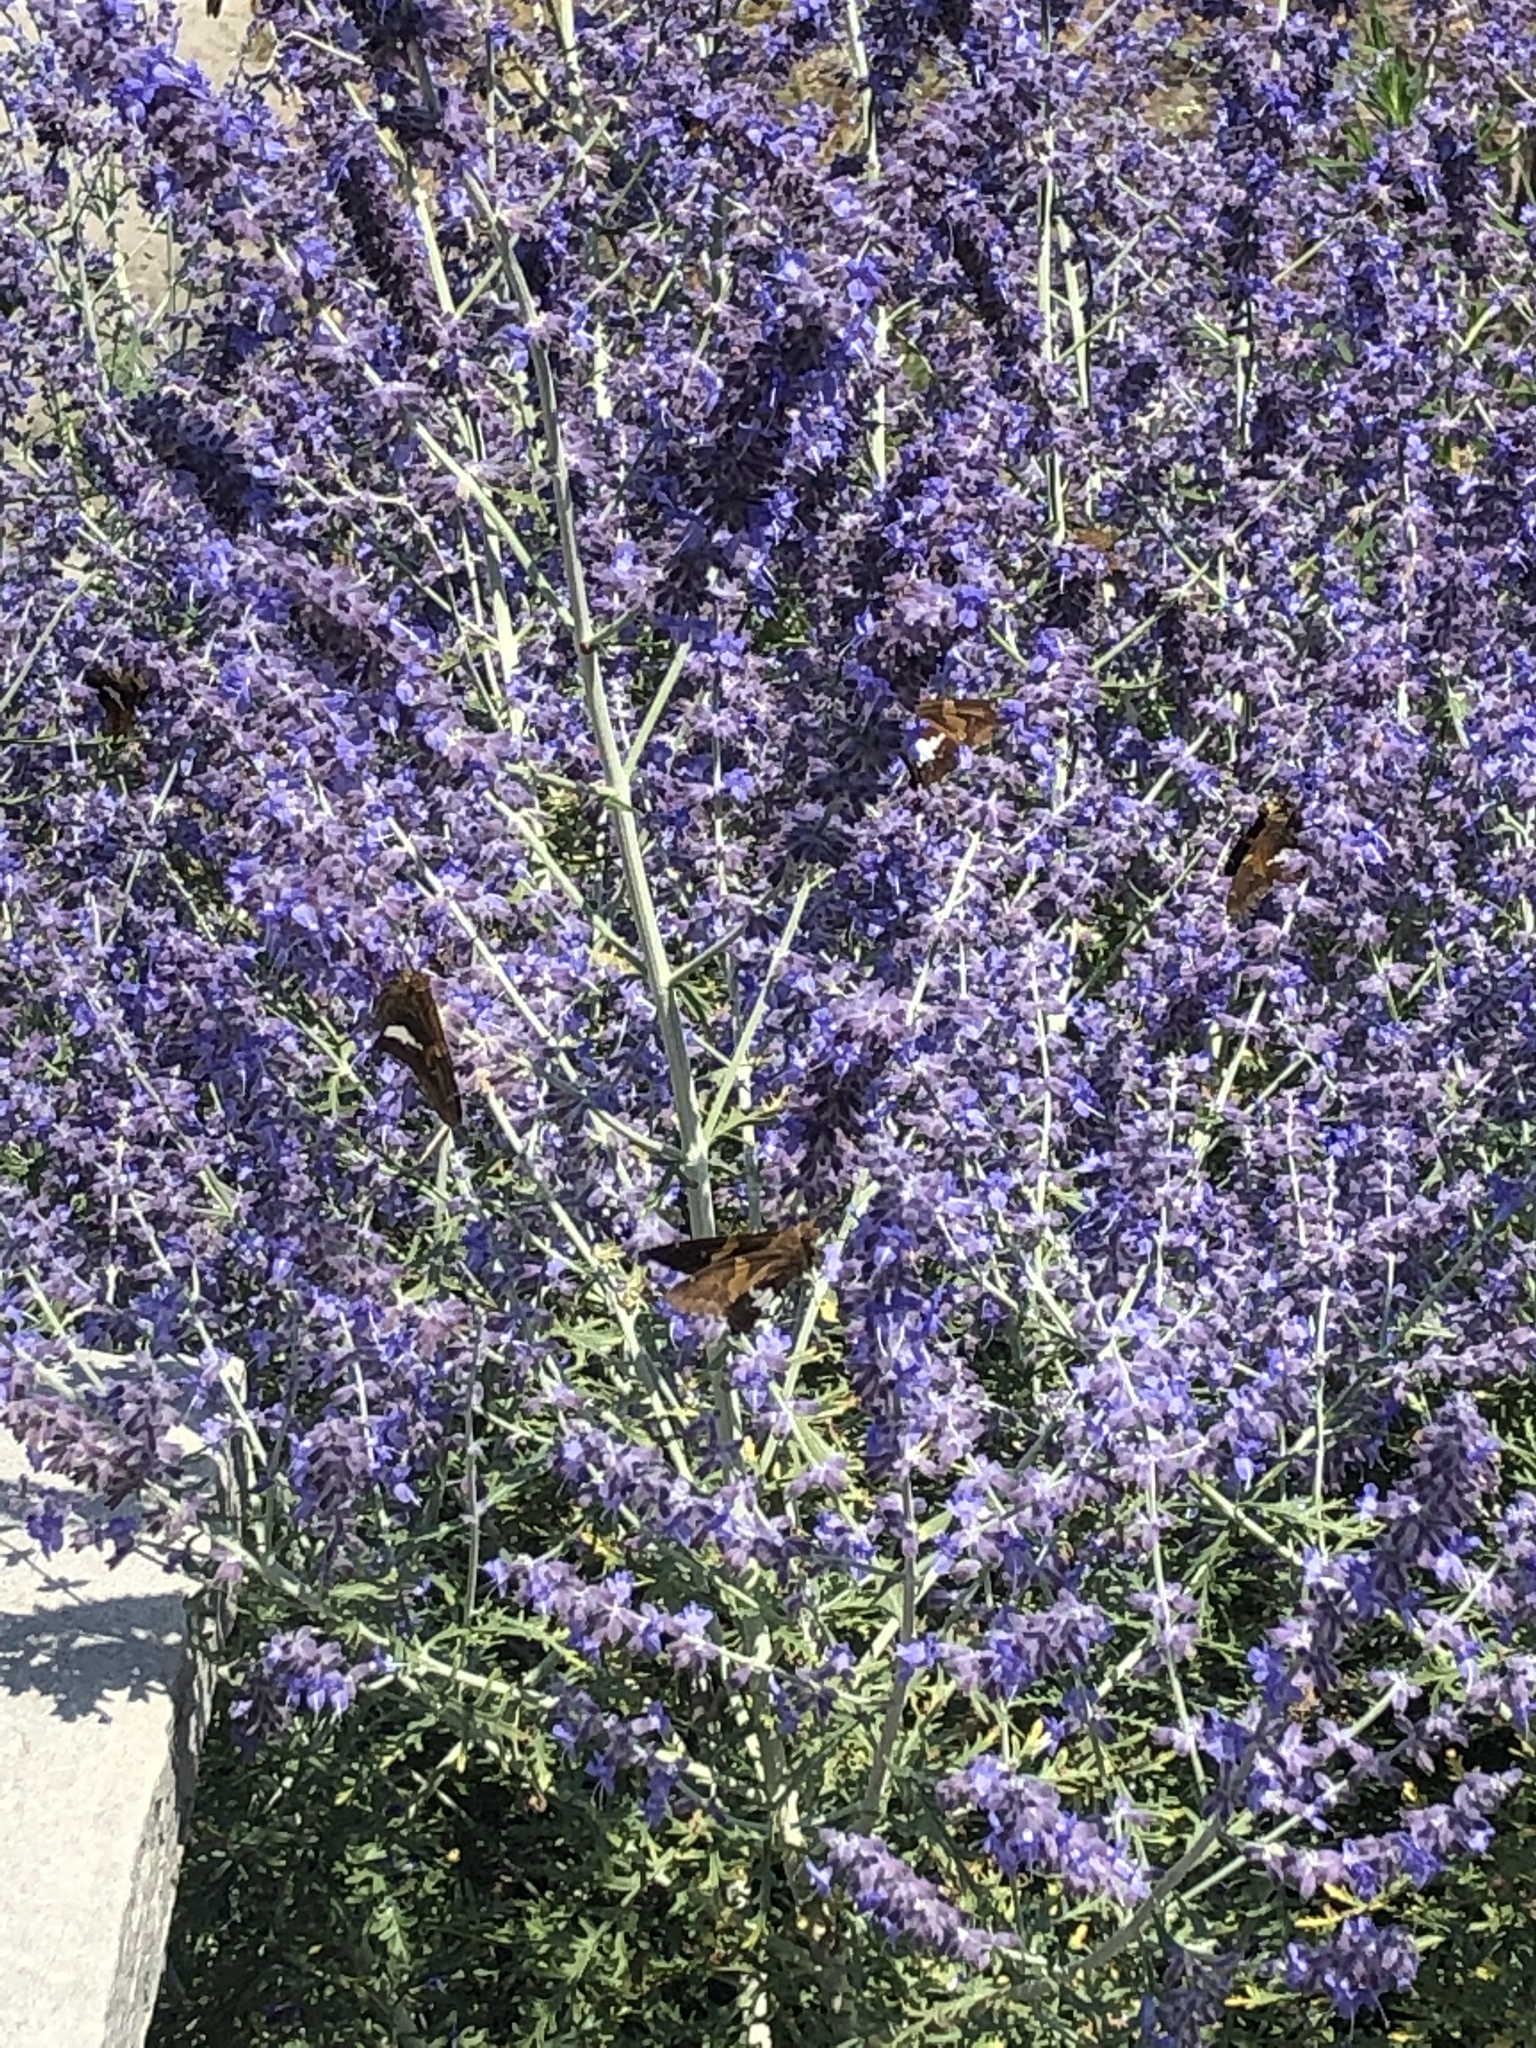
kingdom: Animalia
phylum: Arthropoda
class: Insecta
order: Lepidoptera
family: Hesperiidae
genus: Epargyreus
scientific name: Epargyreus clarus
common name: Silver-spotted skipper
